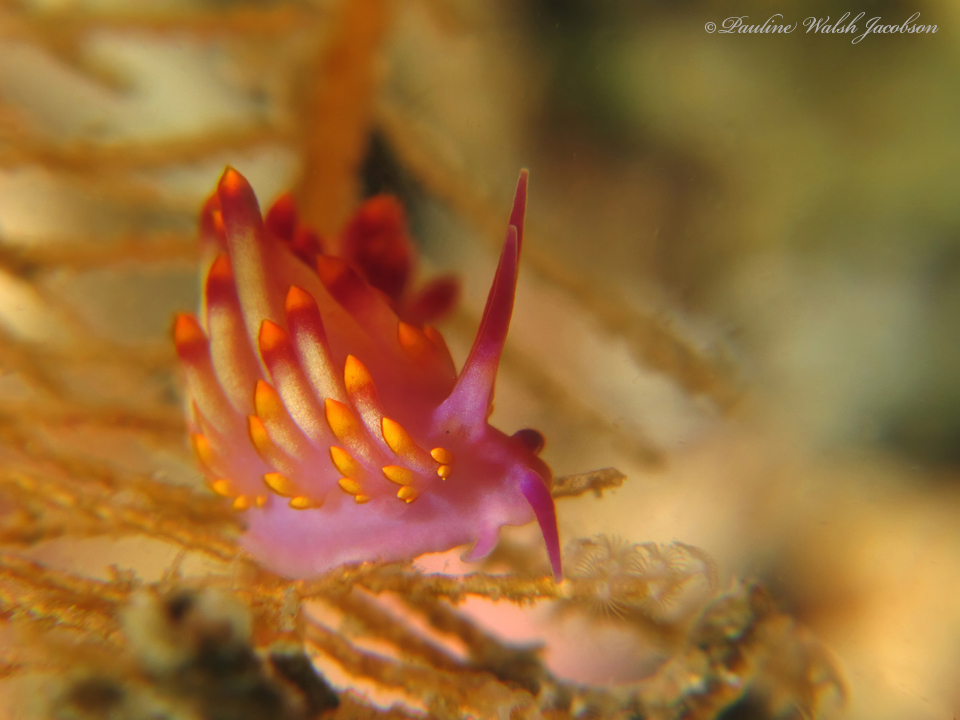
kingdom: Animalia
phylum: Mollusca
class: Gastropoda
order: Nudibranchia
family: Trinchesiidae
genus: Trinchesia
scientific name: Trinchesia sibogae
